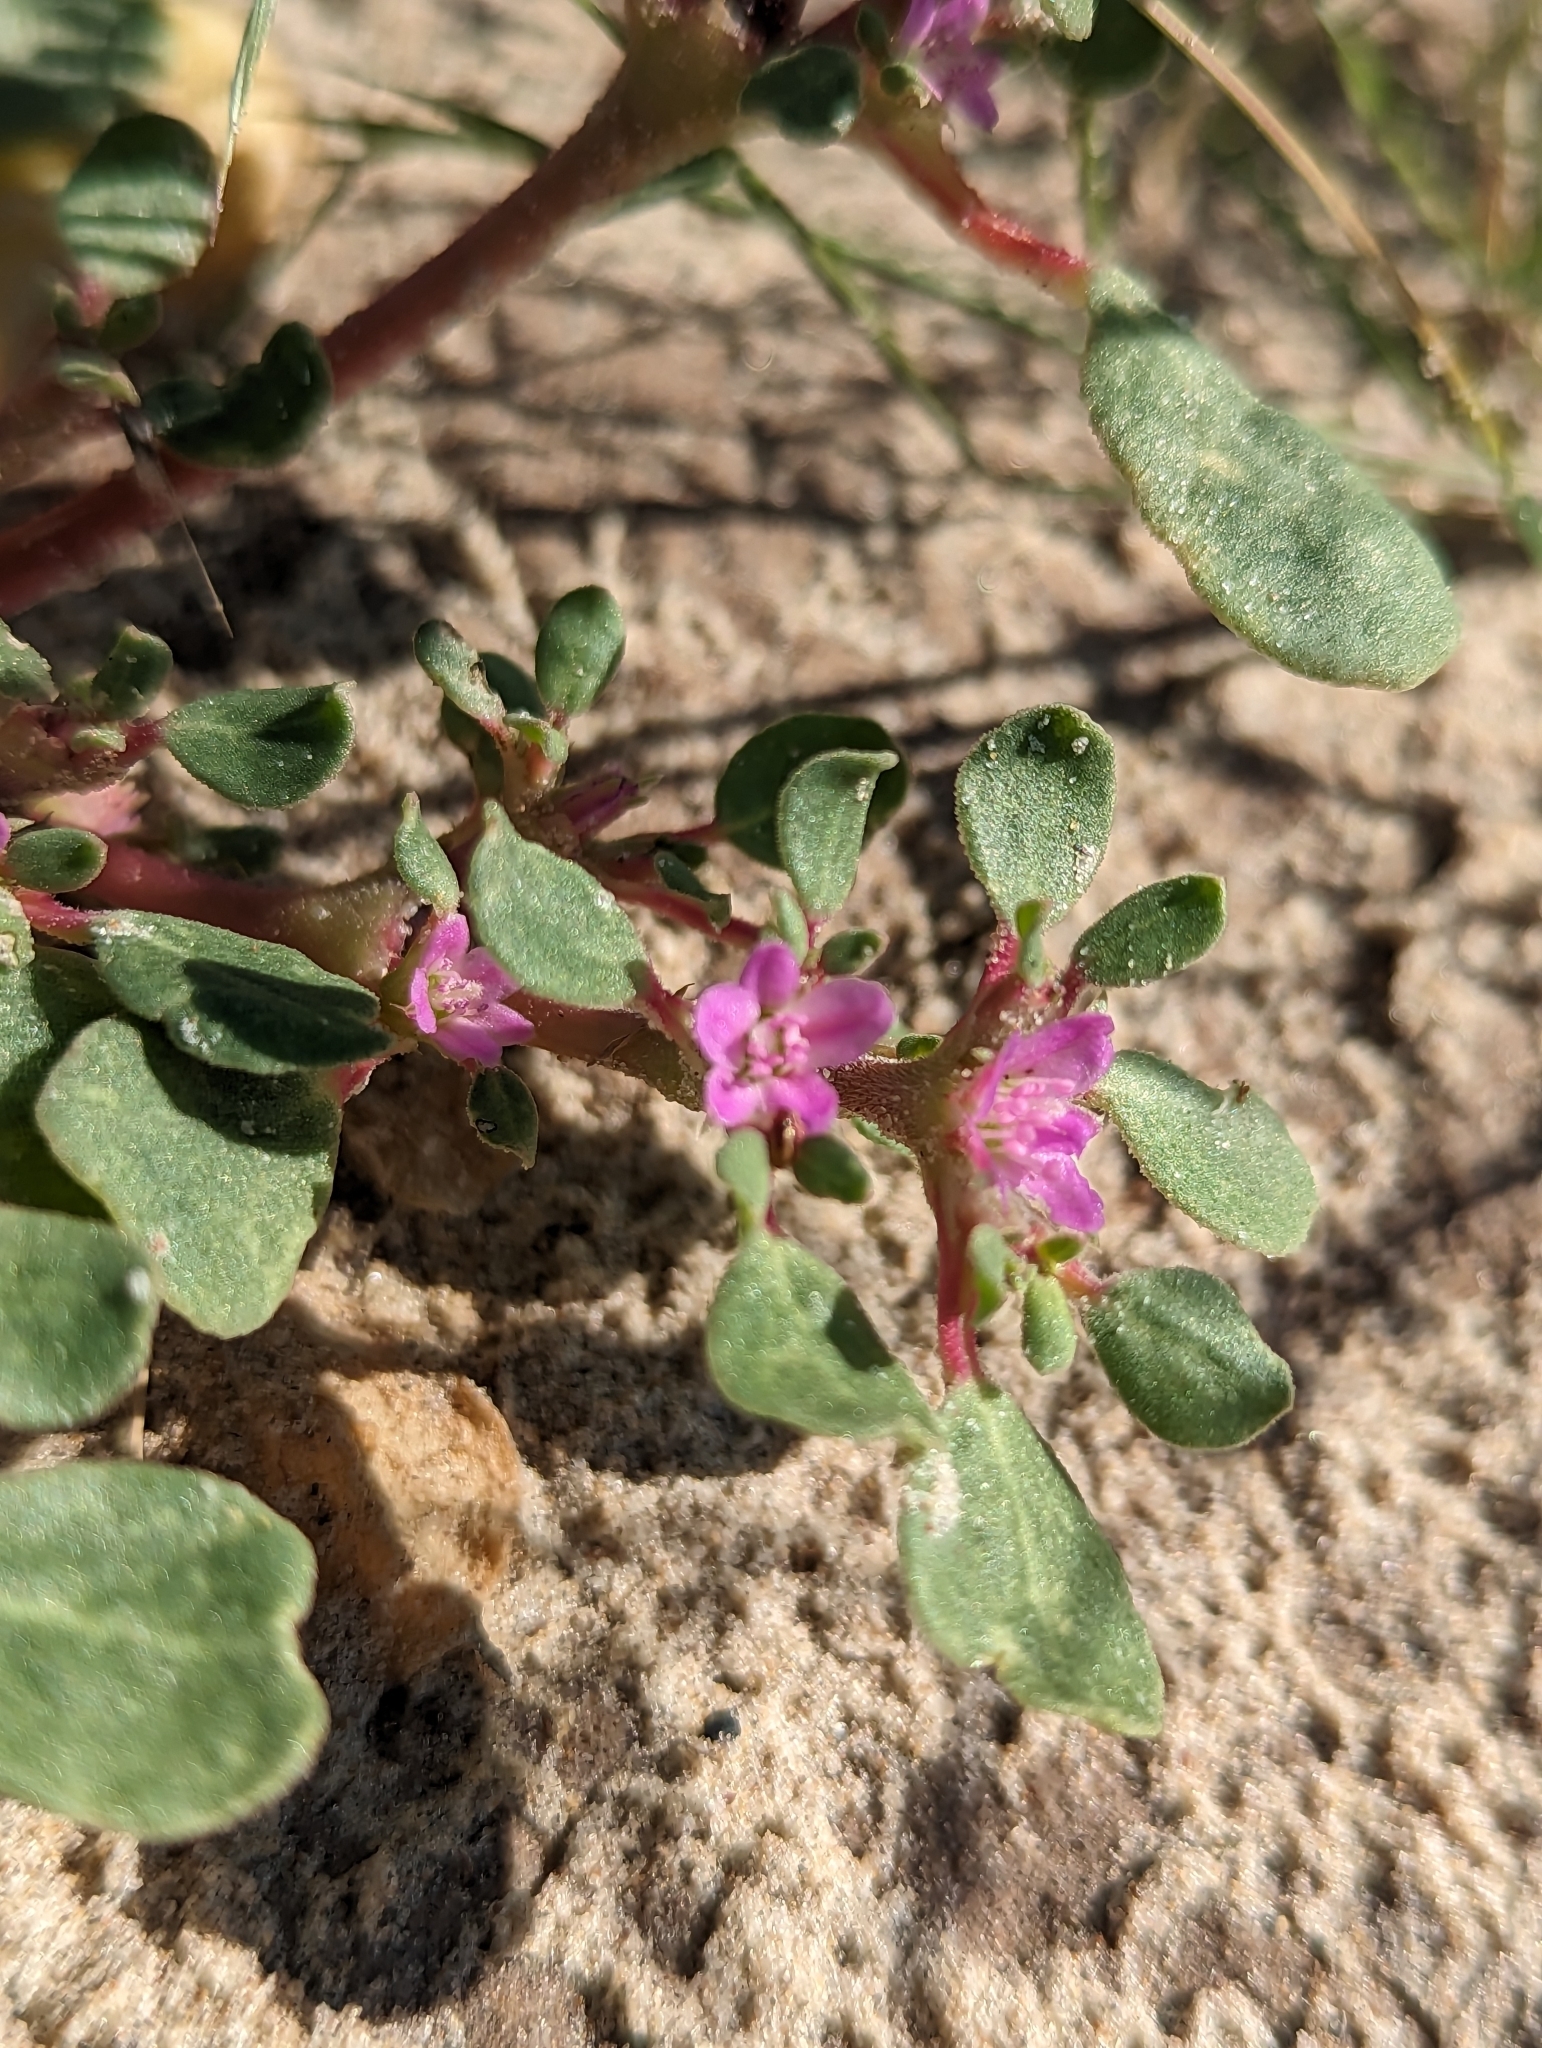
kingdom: Plantae
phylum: Tracheophyta
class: Magnoliopsida
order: Caryophyllales
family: Aizoaceae
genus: Trianthema
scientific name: Trianthema portulacastrum
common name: Desert horsepurslane
